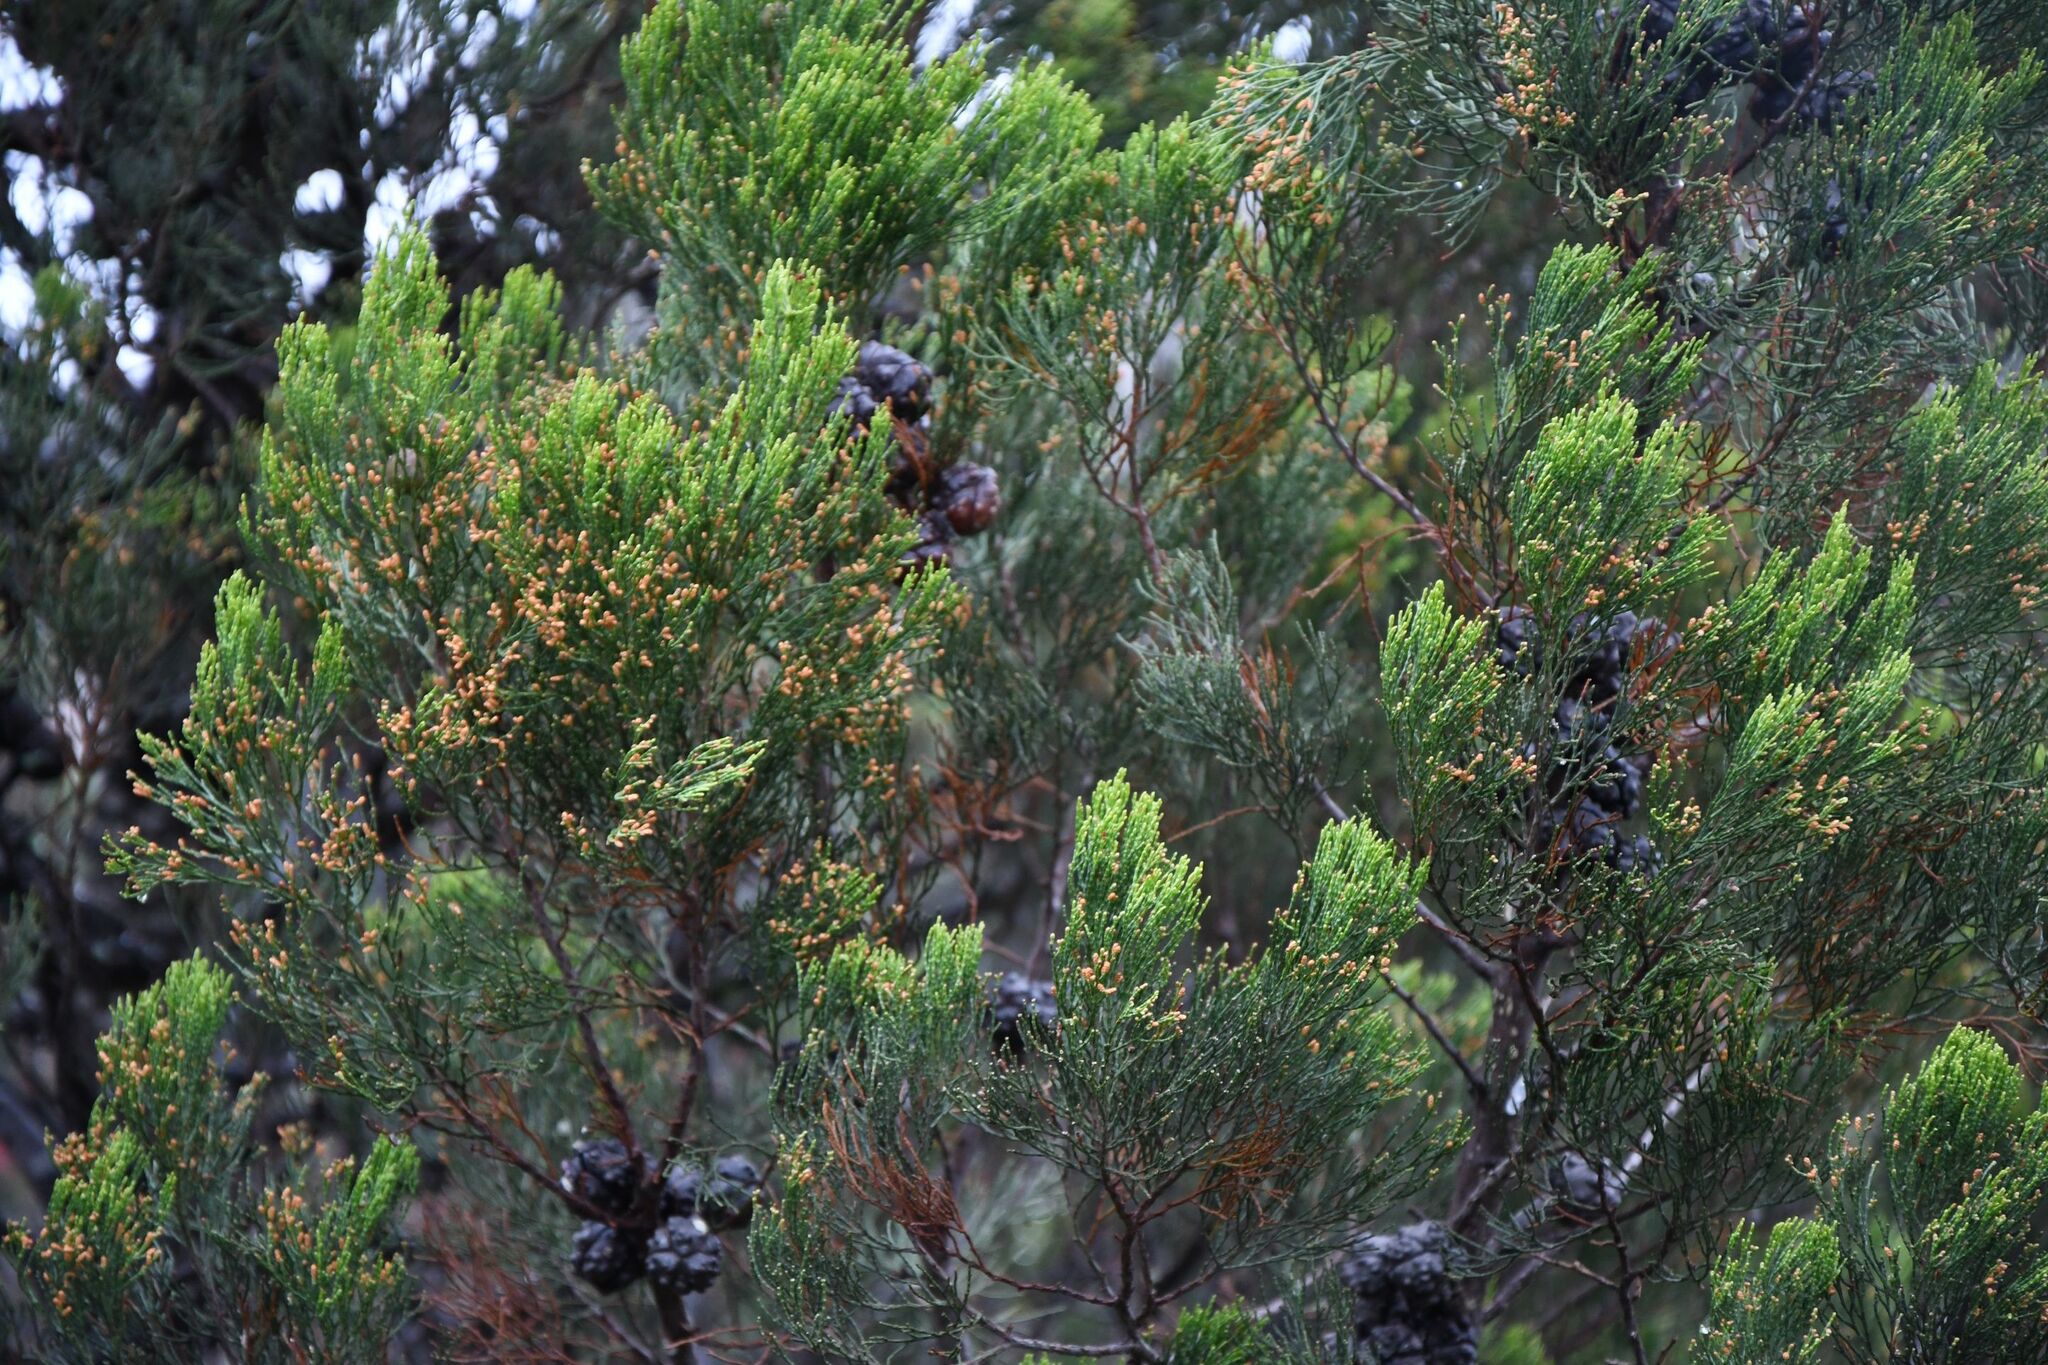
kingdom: Plantae
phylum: Tracheophyta
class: Pinopsida
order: Pinales
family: Cupressaceae
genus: Callitris
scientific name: Callitris preissii
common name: Mallee pine
